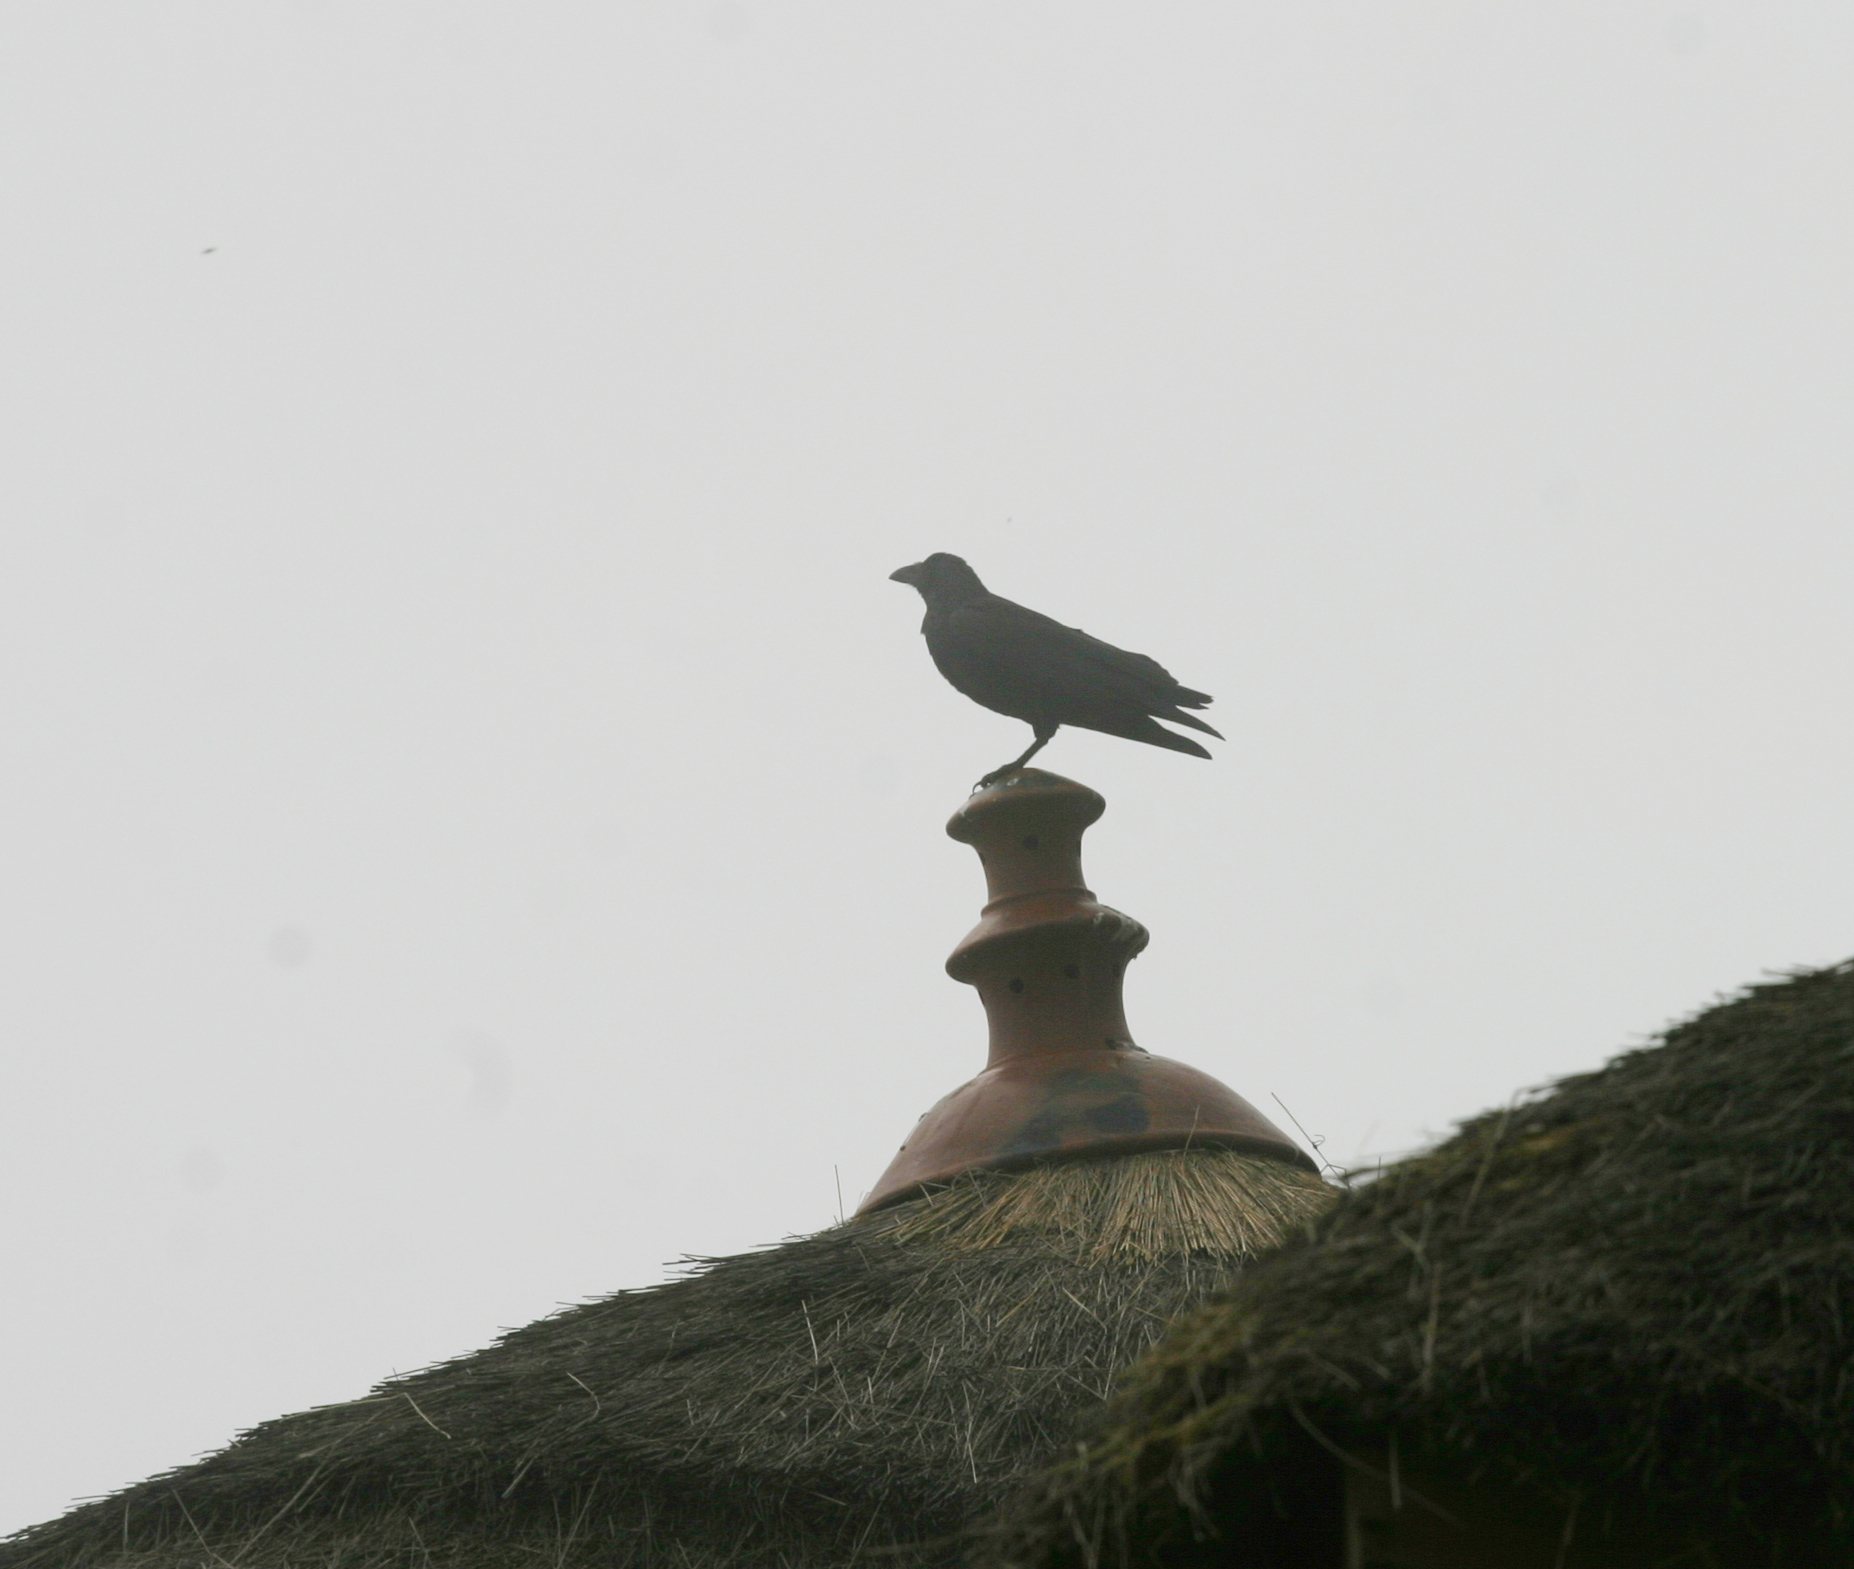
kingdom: Animalia
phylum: Chordata
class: Aves
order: Passeriformes
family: Corvidae
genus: Corvus
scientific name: Corvus rhipidurus
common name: Fan-tailed raven
